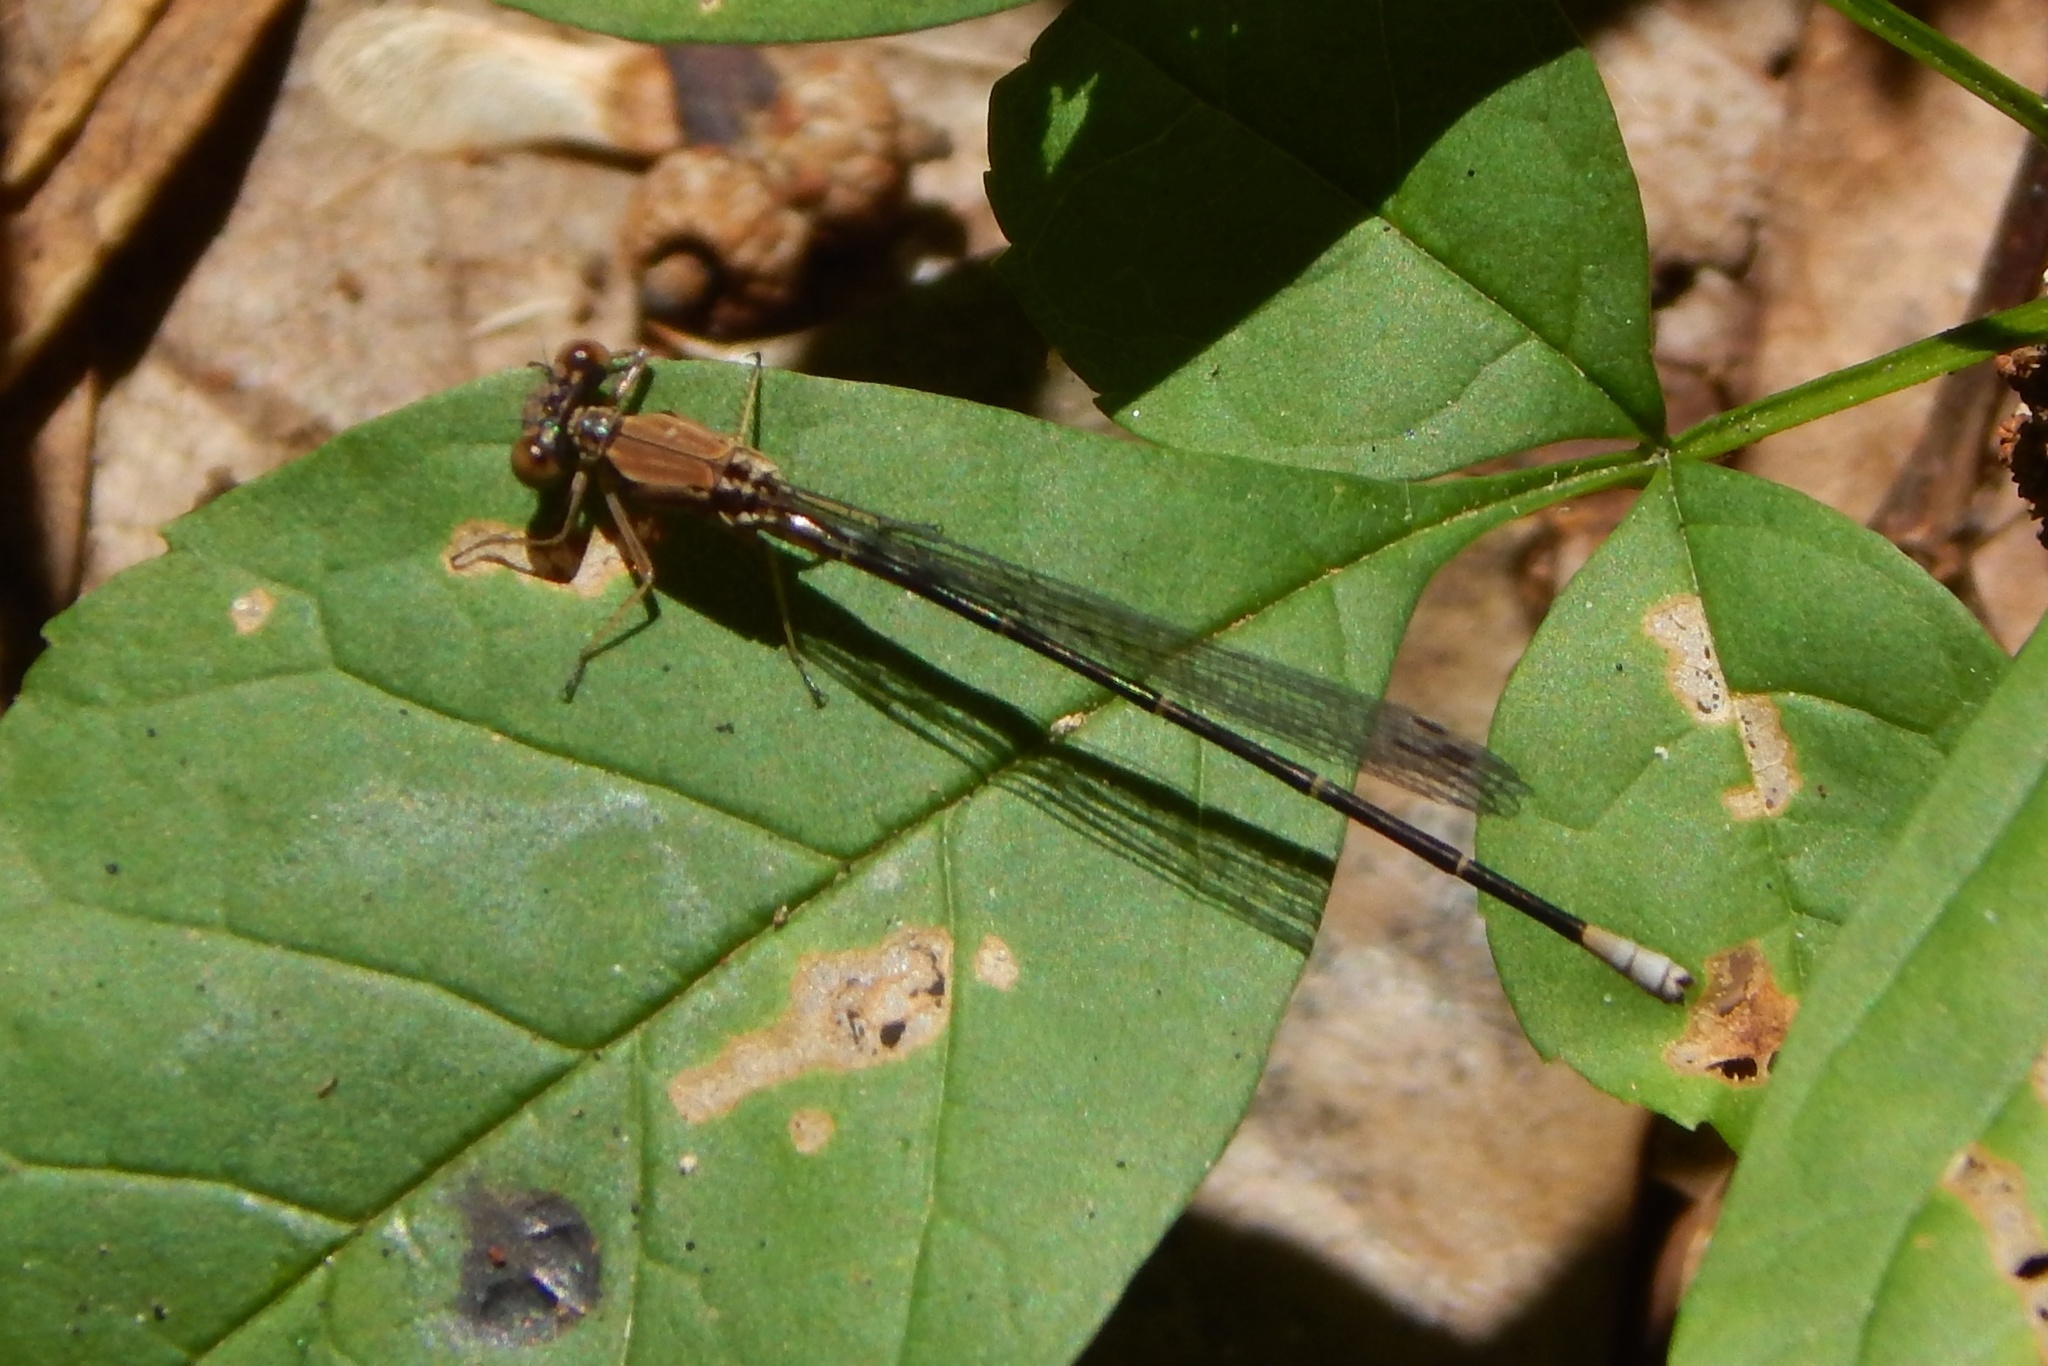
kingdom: Animalia
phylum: Arthropoda
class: Insecta
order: Odonata
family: Coenagrionidae
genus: Argia
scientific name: Argia apicalis
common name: Blue-fronted dancer
